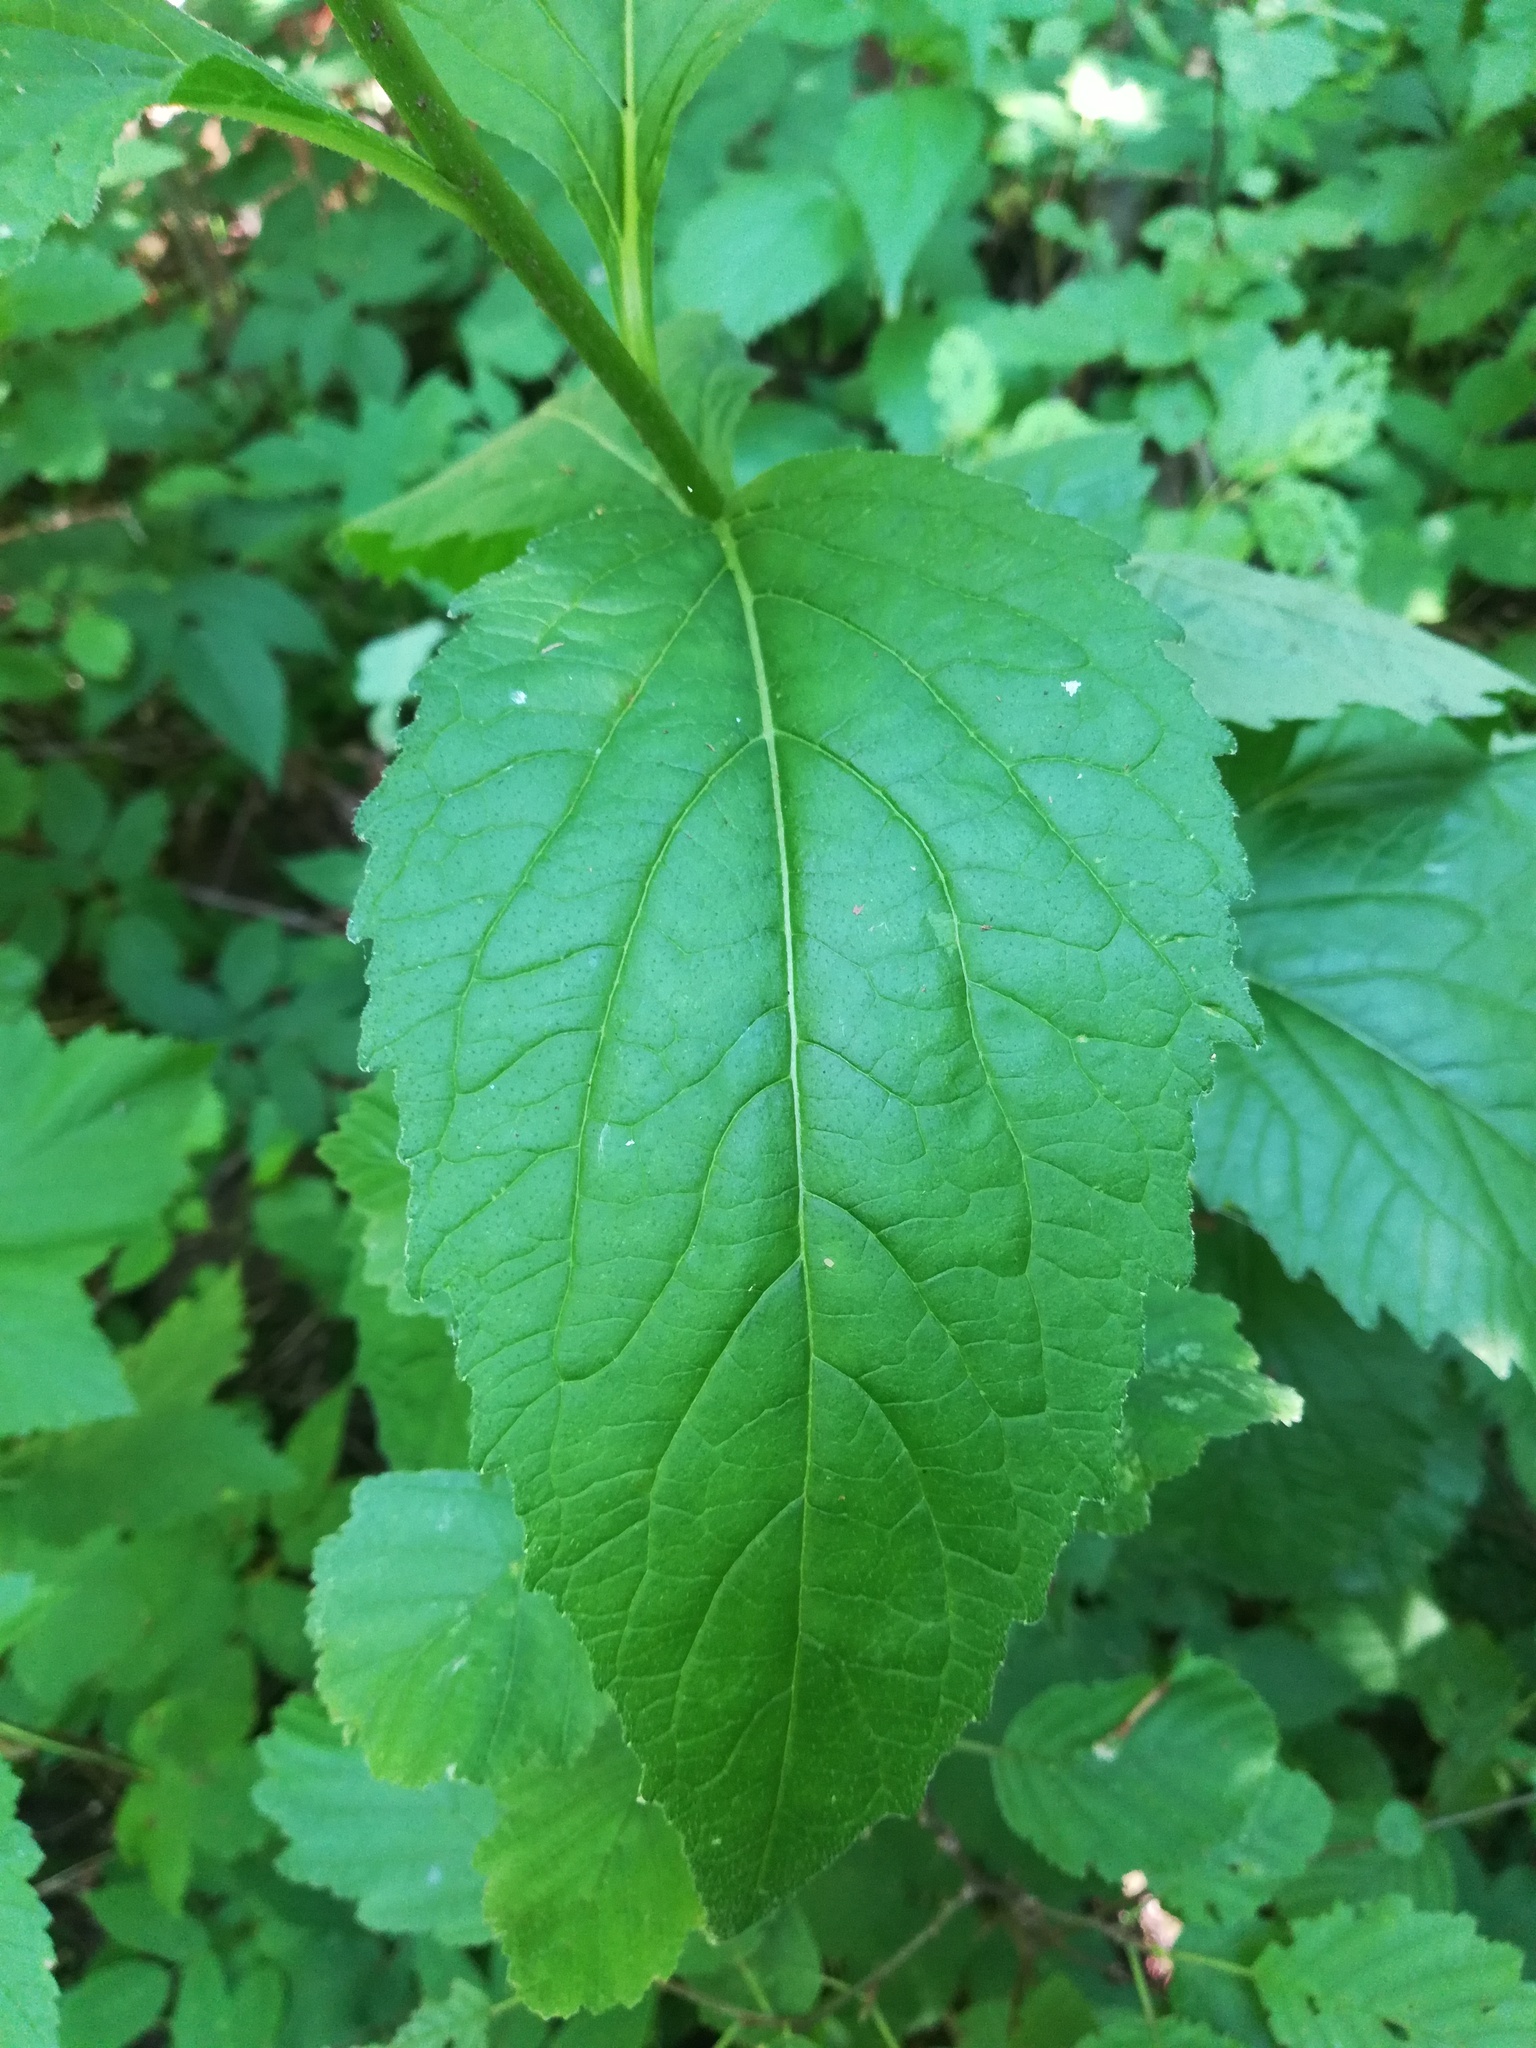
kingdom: Plantae
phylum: Tracheophyta
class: Magnoliopsida
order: Asterales
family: Campanulaceae
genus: Campanula
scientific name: Campanula latifolia
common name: Giant bellflower
